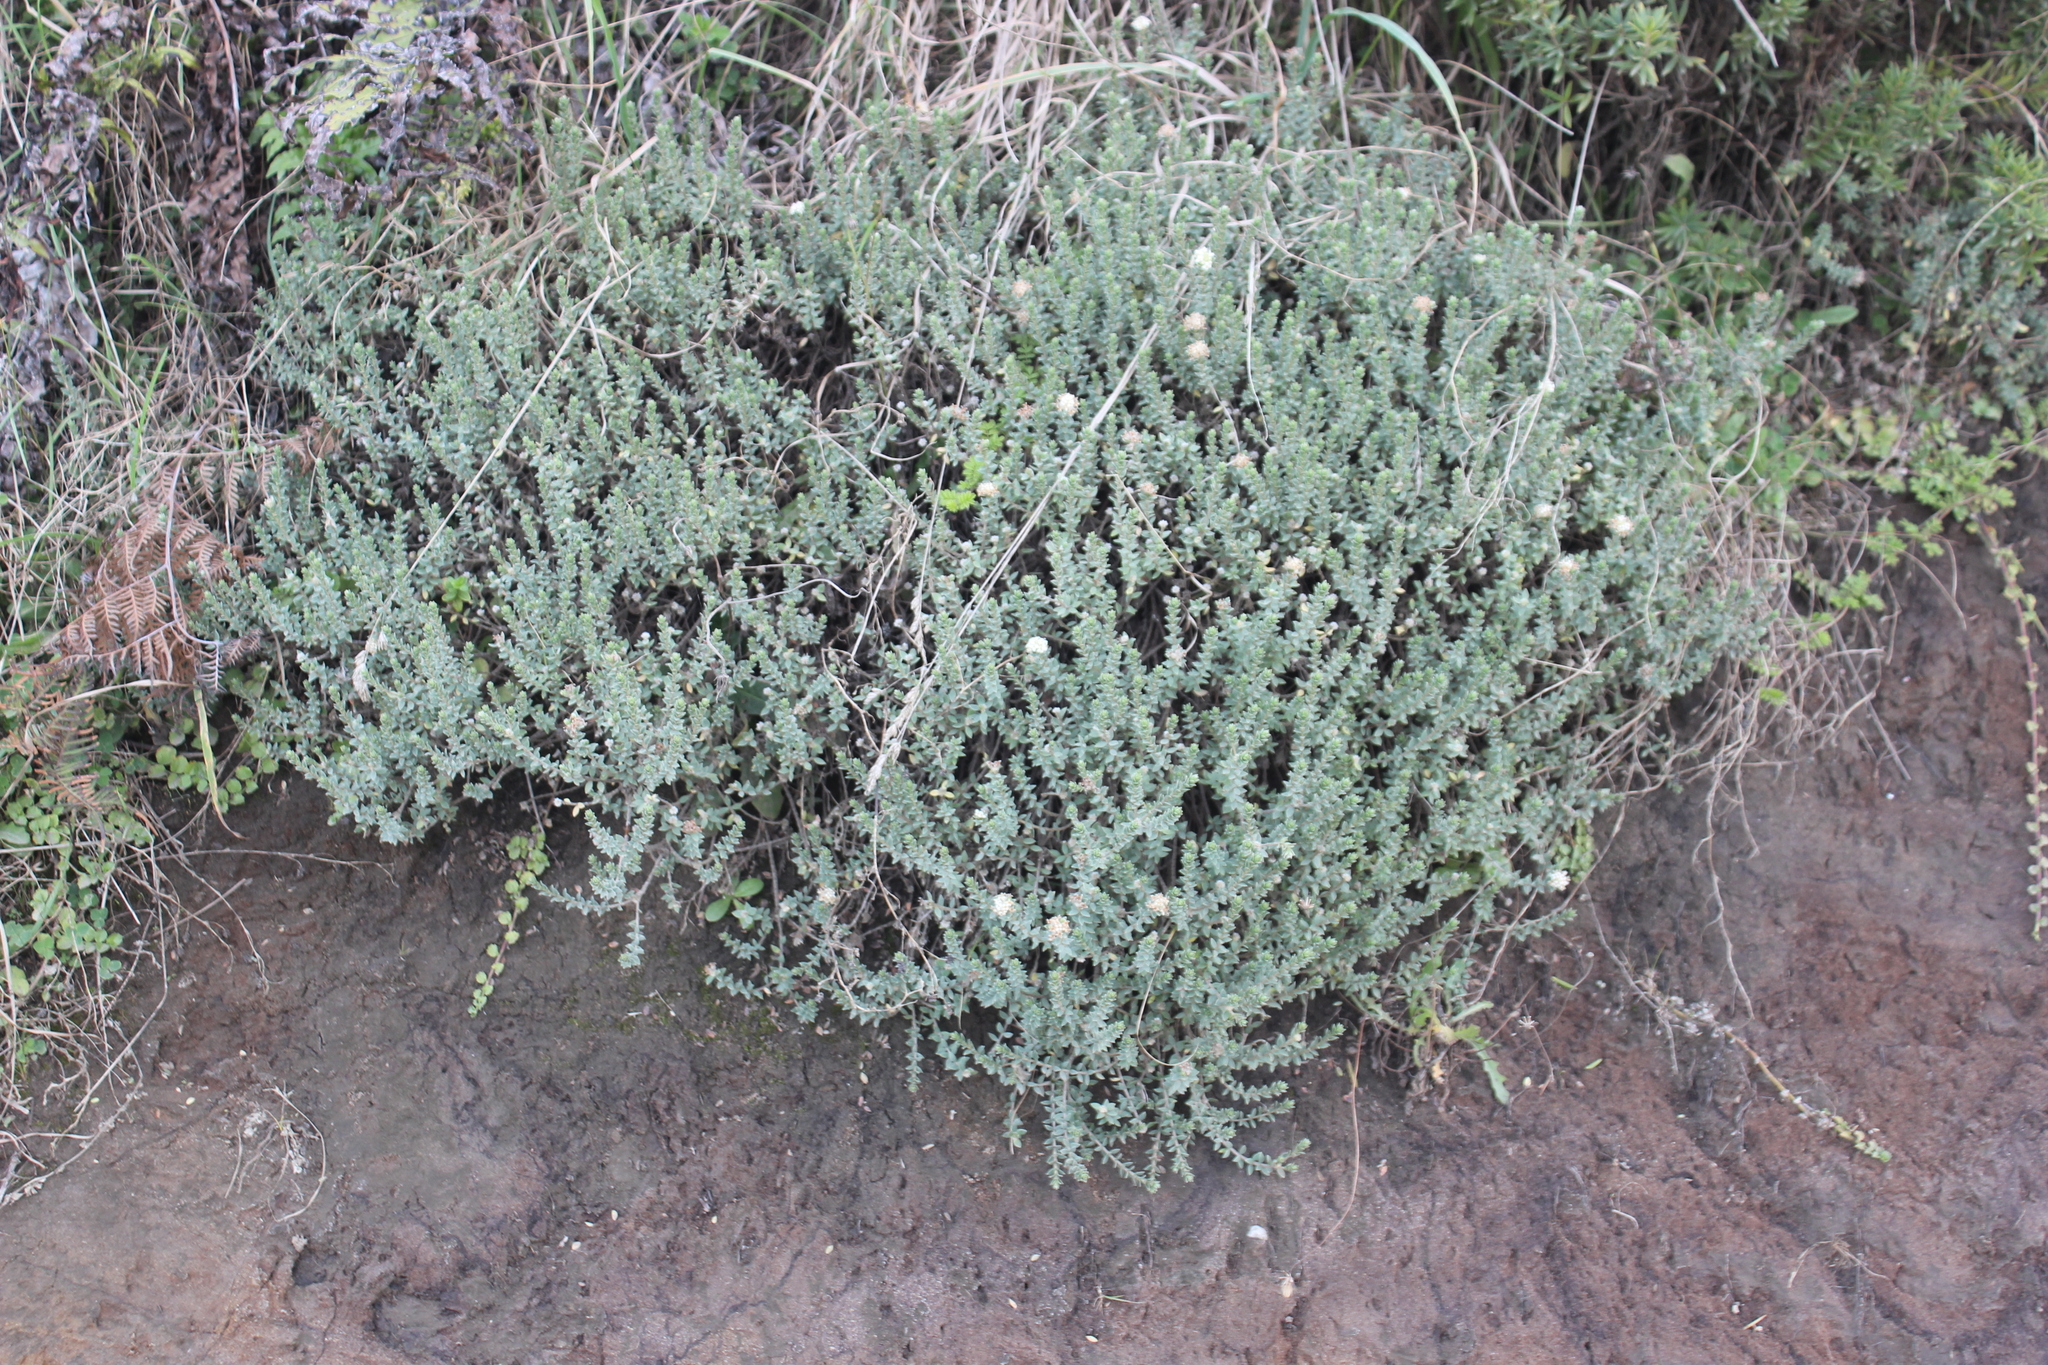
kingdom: Plantae
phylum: Tracheophyta
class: Magnoliopsida
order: Malvales
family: Thymelaeaceae
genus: Pimelea
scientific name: Pimelea villosa
